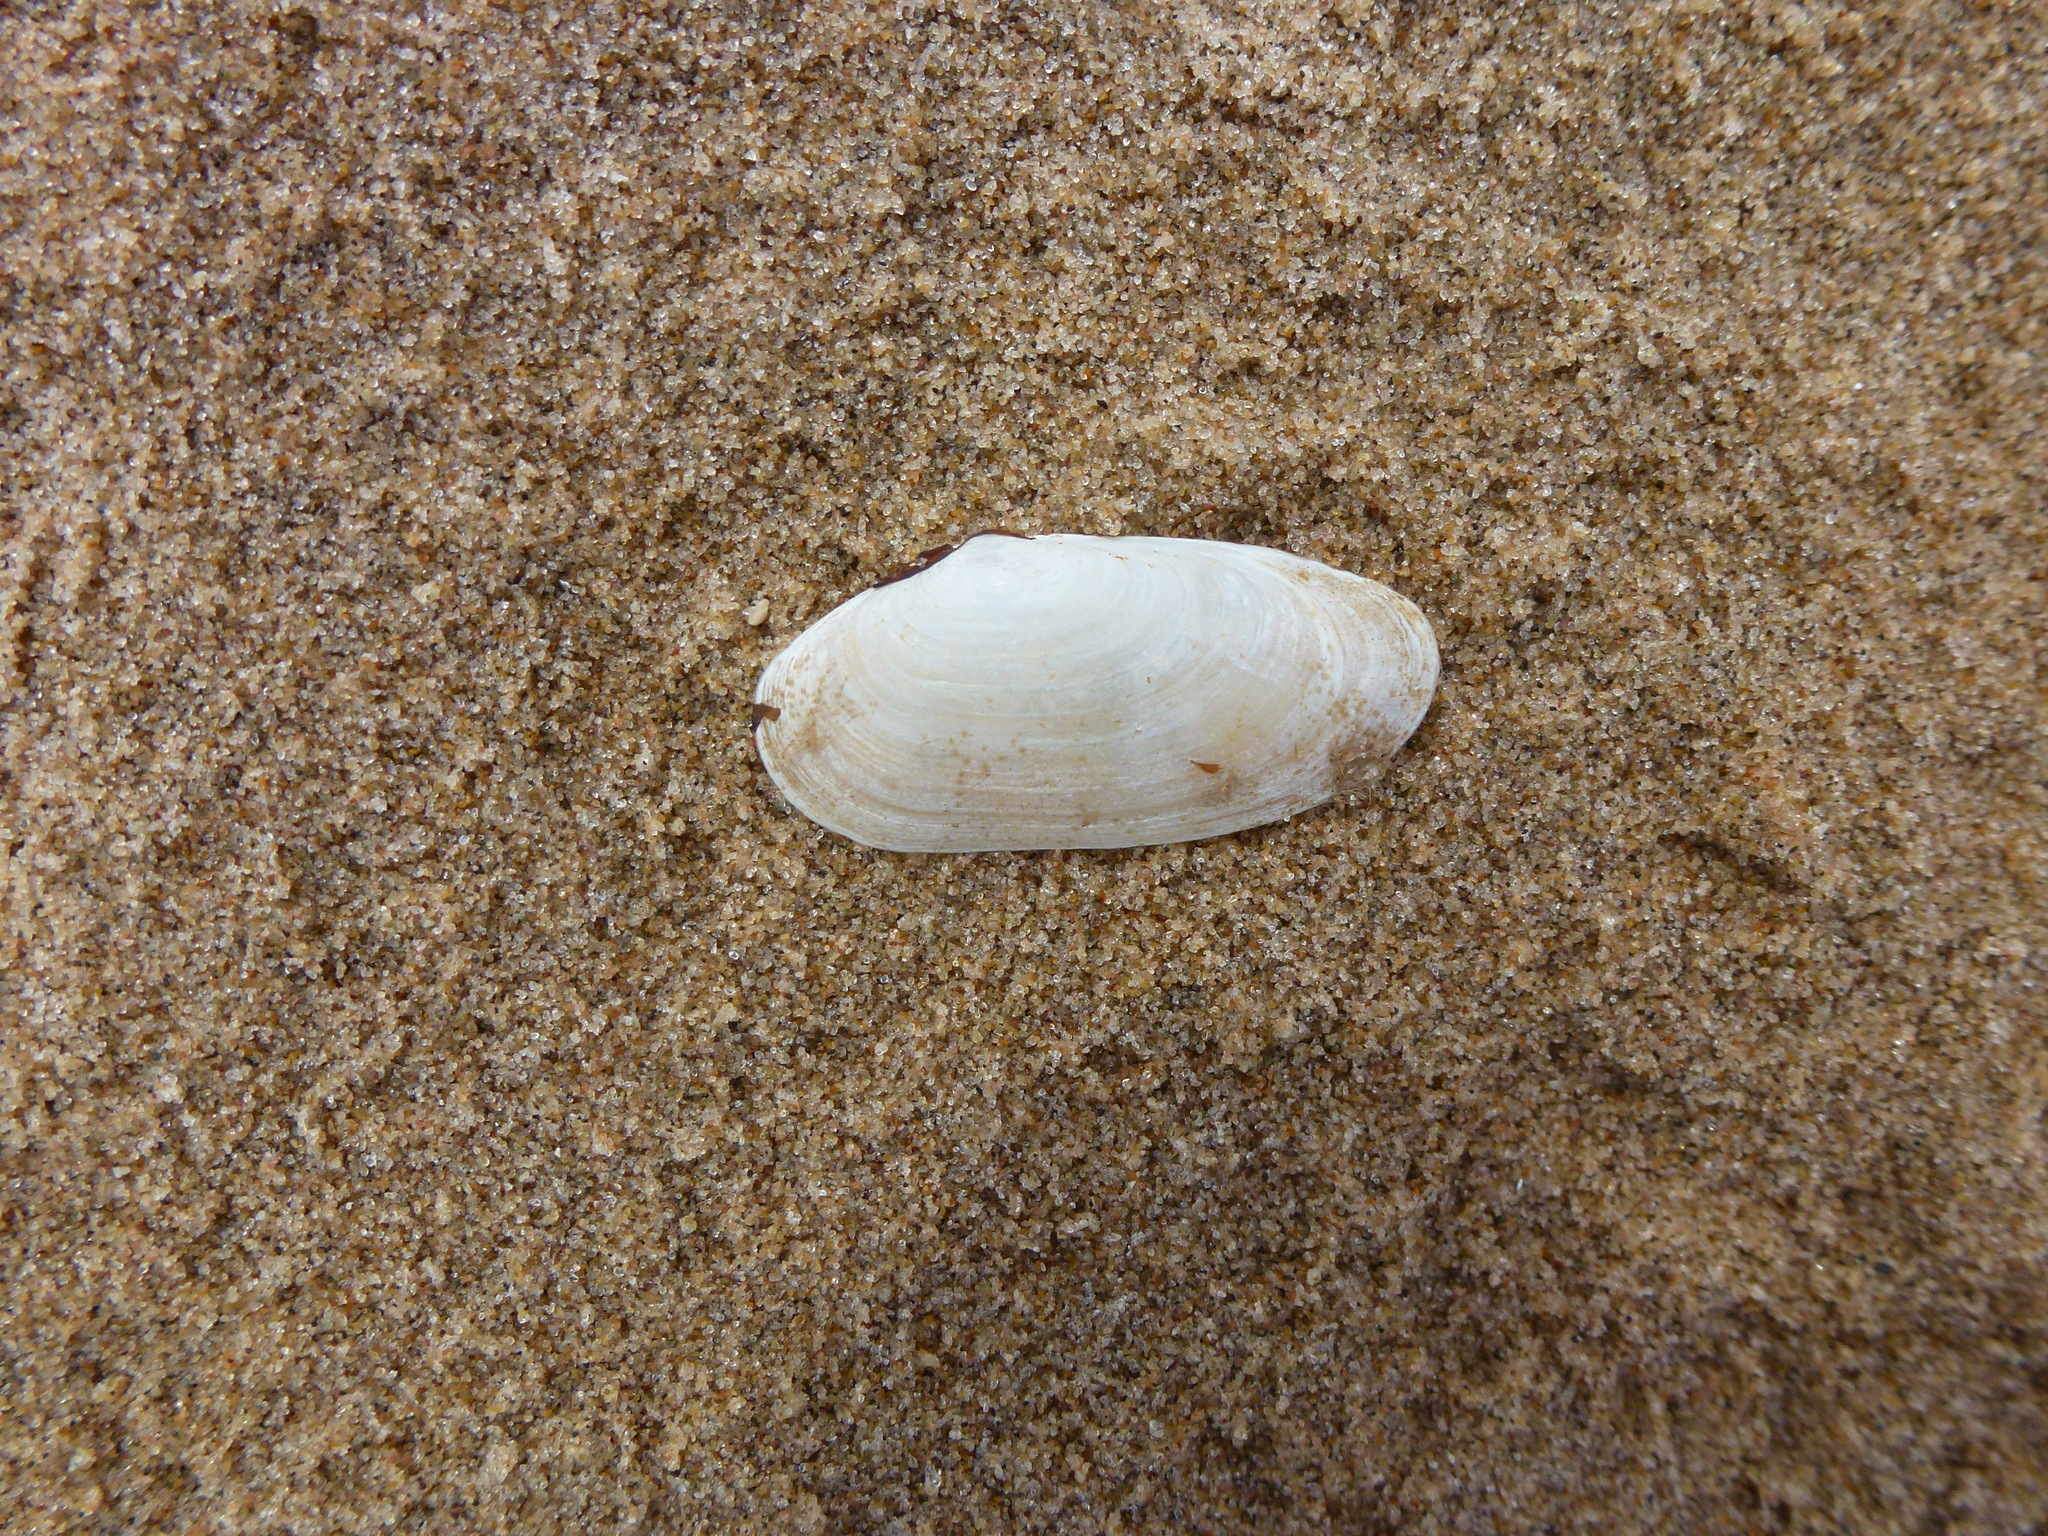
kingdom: Animalia
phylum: Mollusca
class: Bivalvia
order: Venerida
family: Mactridae
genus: Lutraria
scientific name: Lutraria lutraria
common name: Common otter shell
